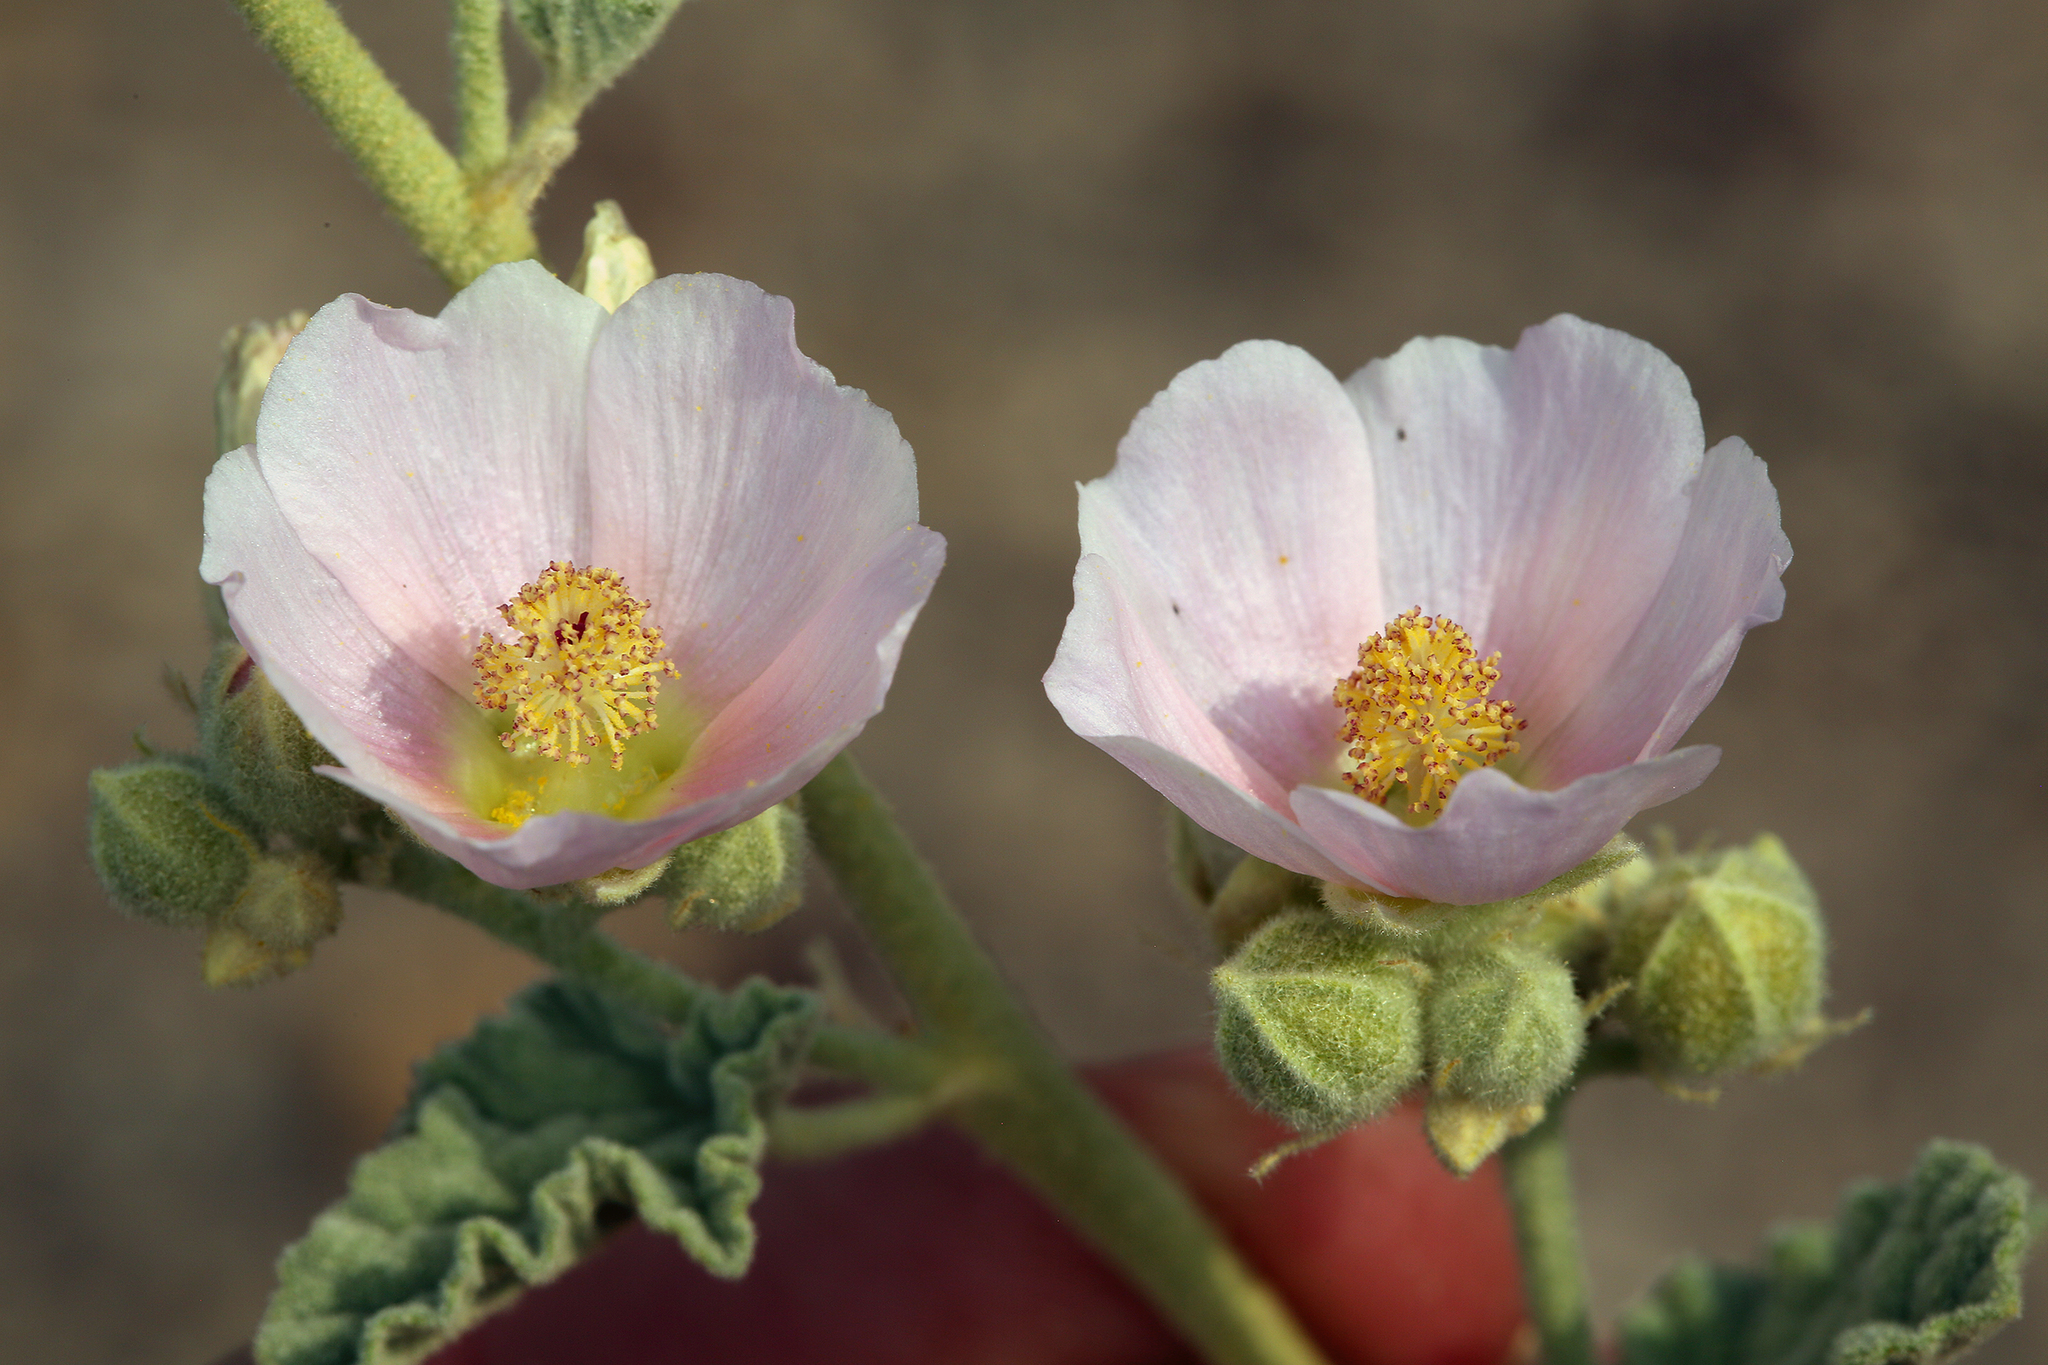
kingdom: Plantae
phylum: Tracheophyta
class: Magnoliopsida
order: Malvales
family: Malvaceae
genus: Sphaeralcea
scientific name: Sphaeralcea ambigua
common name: Apricot globe-mallow
